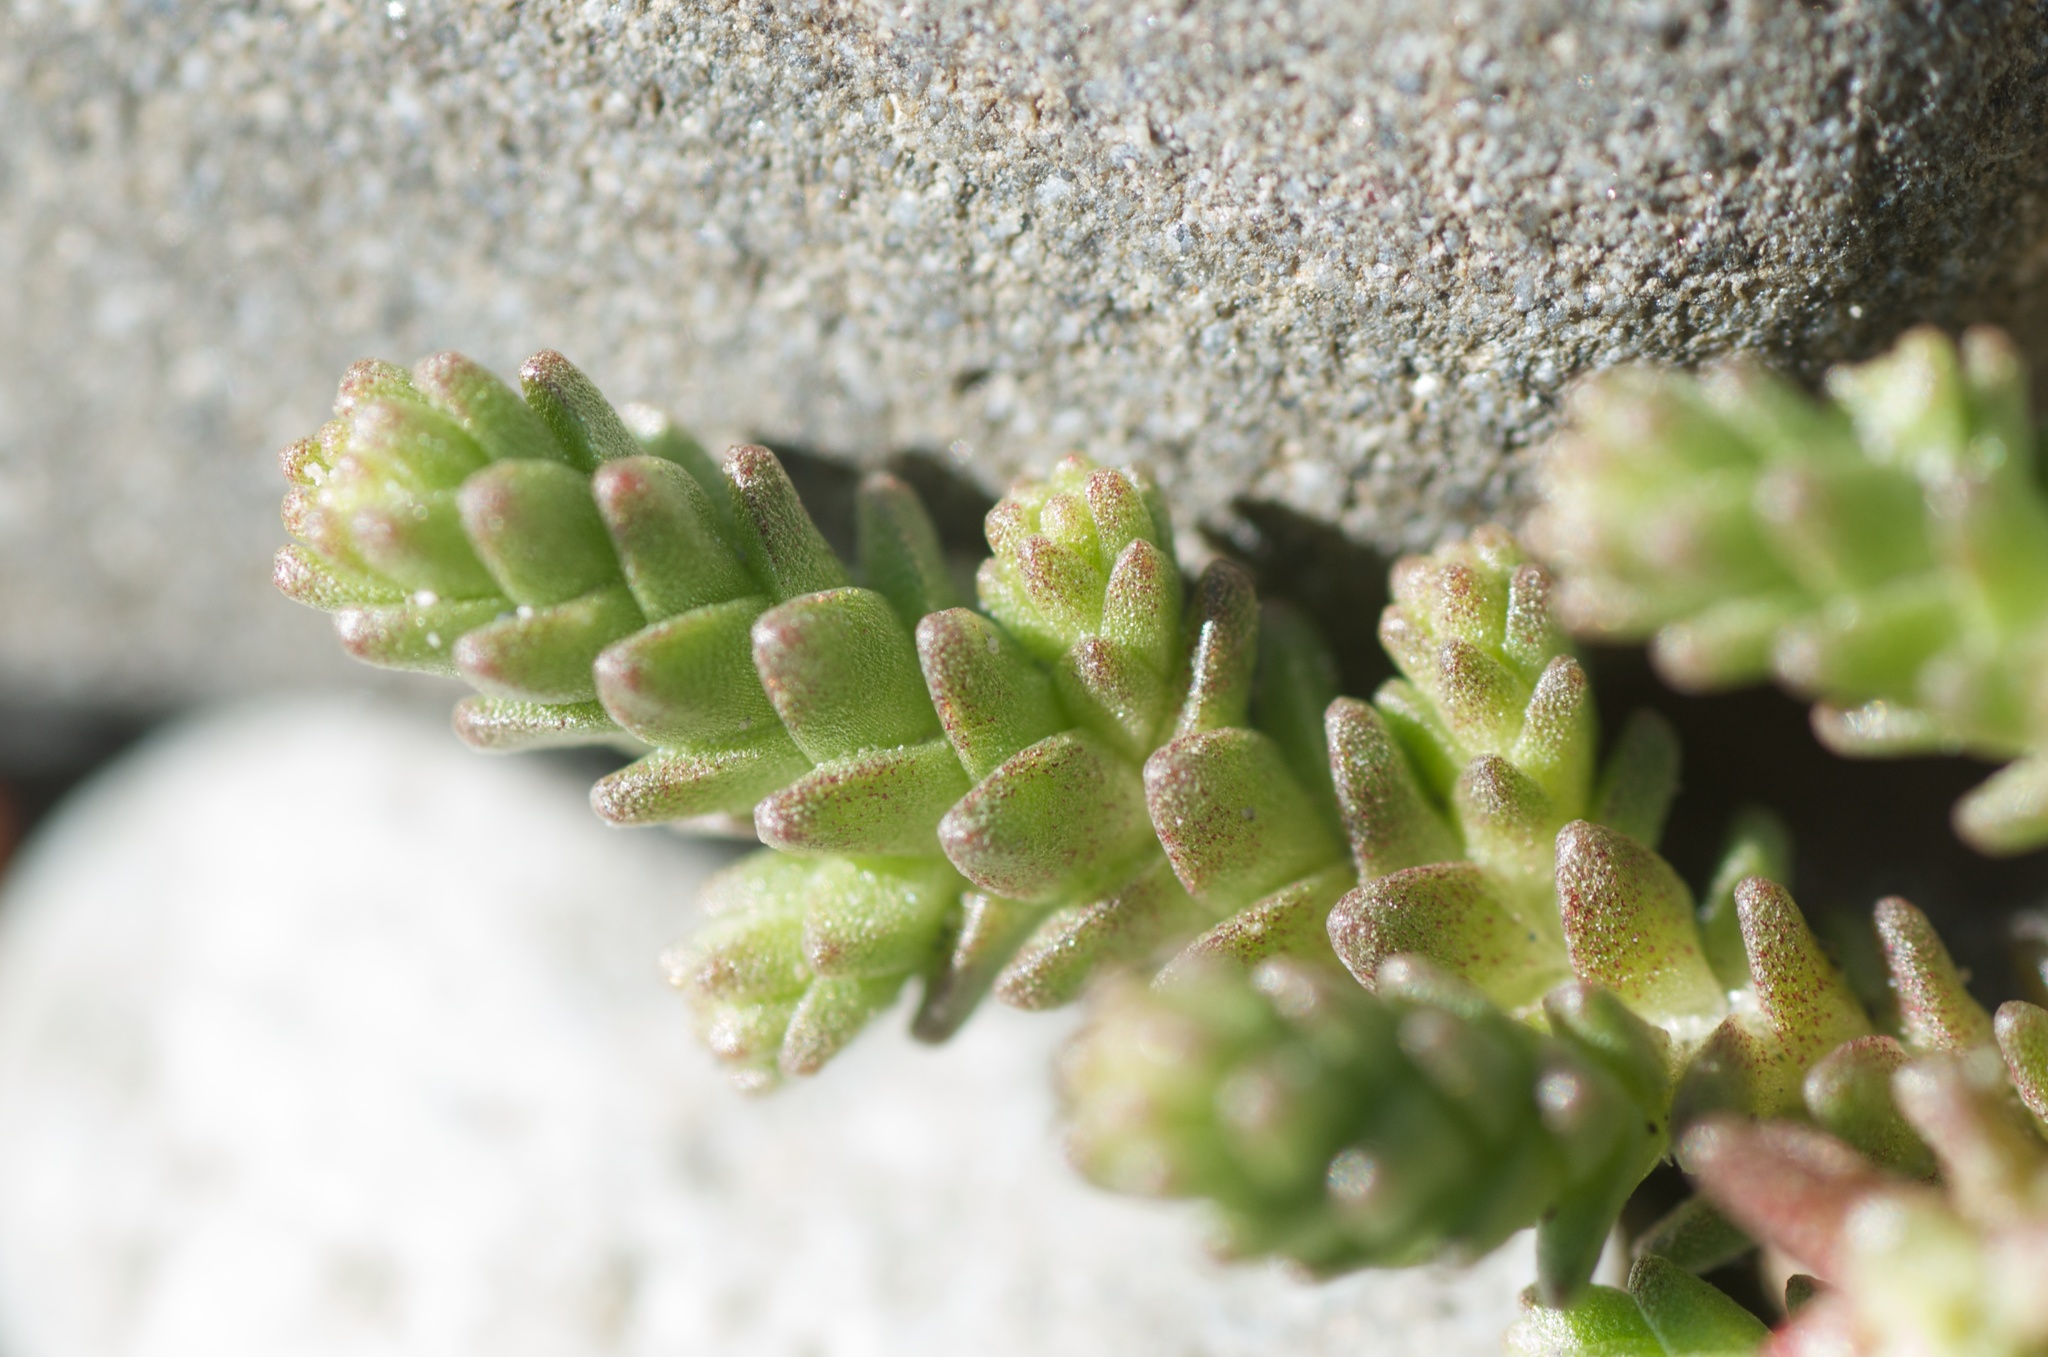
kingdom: Plantae
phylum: Tracheophyta
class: Magnoliopsida
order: Saxifragales
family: Crassulaceae
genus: Sedum
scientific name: Sedum acre
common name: Biting stonecrop
